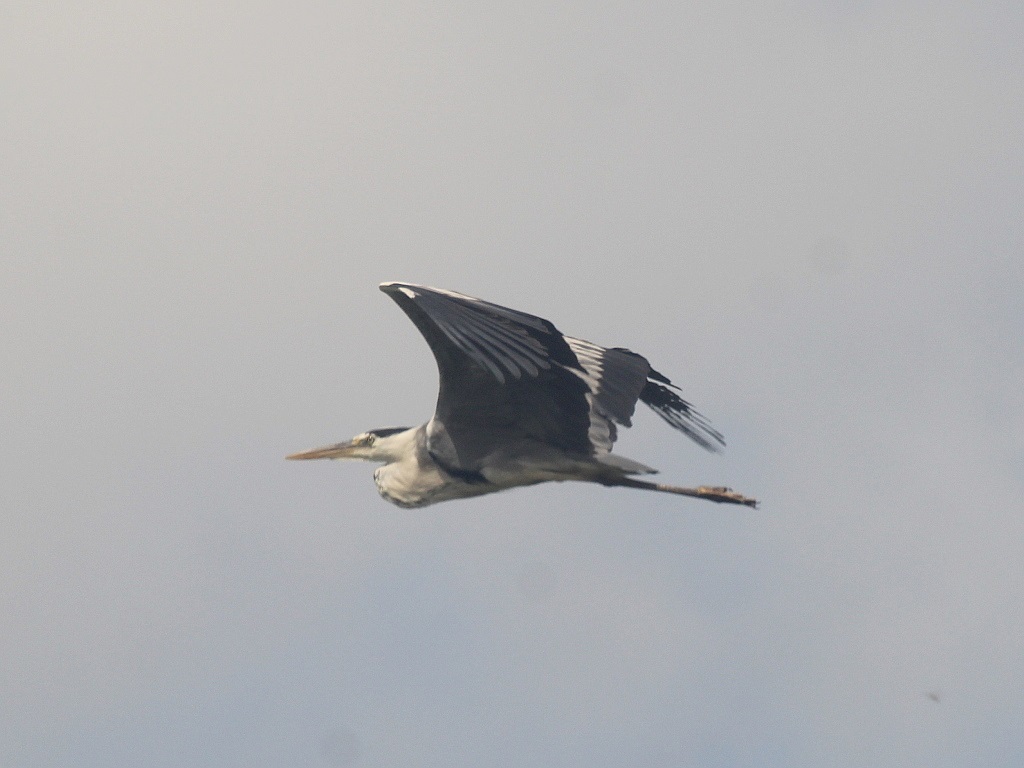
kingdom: Animalia
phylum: Chordata
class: Aves
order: Pelecaniformes
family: Ardeidae
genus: Ardea
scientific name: Ardea cinerea
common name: Grey heron
